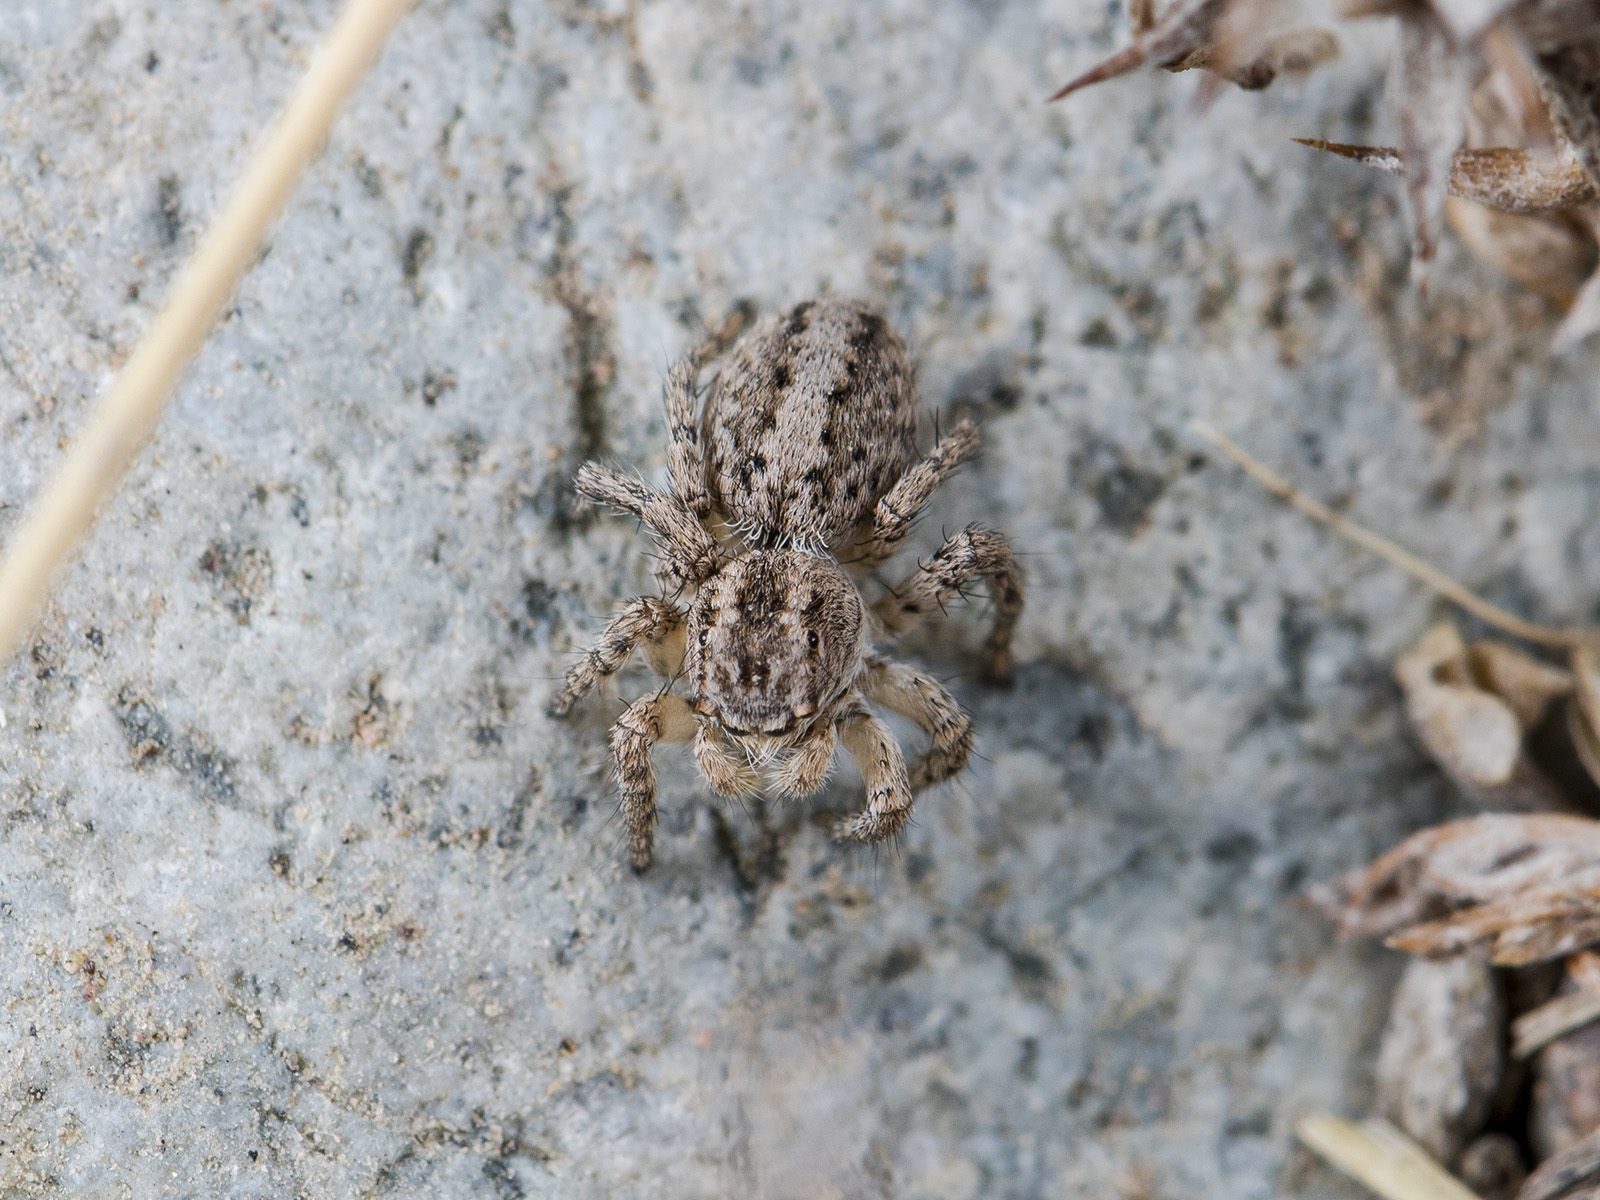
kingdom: Animalia
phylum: Arthropoda
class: Arachnida
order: Araneae
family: Salticidae
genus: Aelurillus
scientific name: Aelurillus v-insignitus
